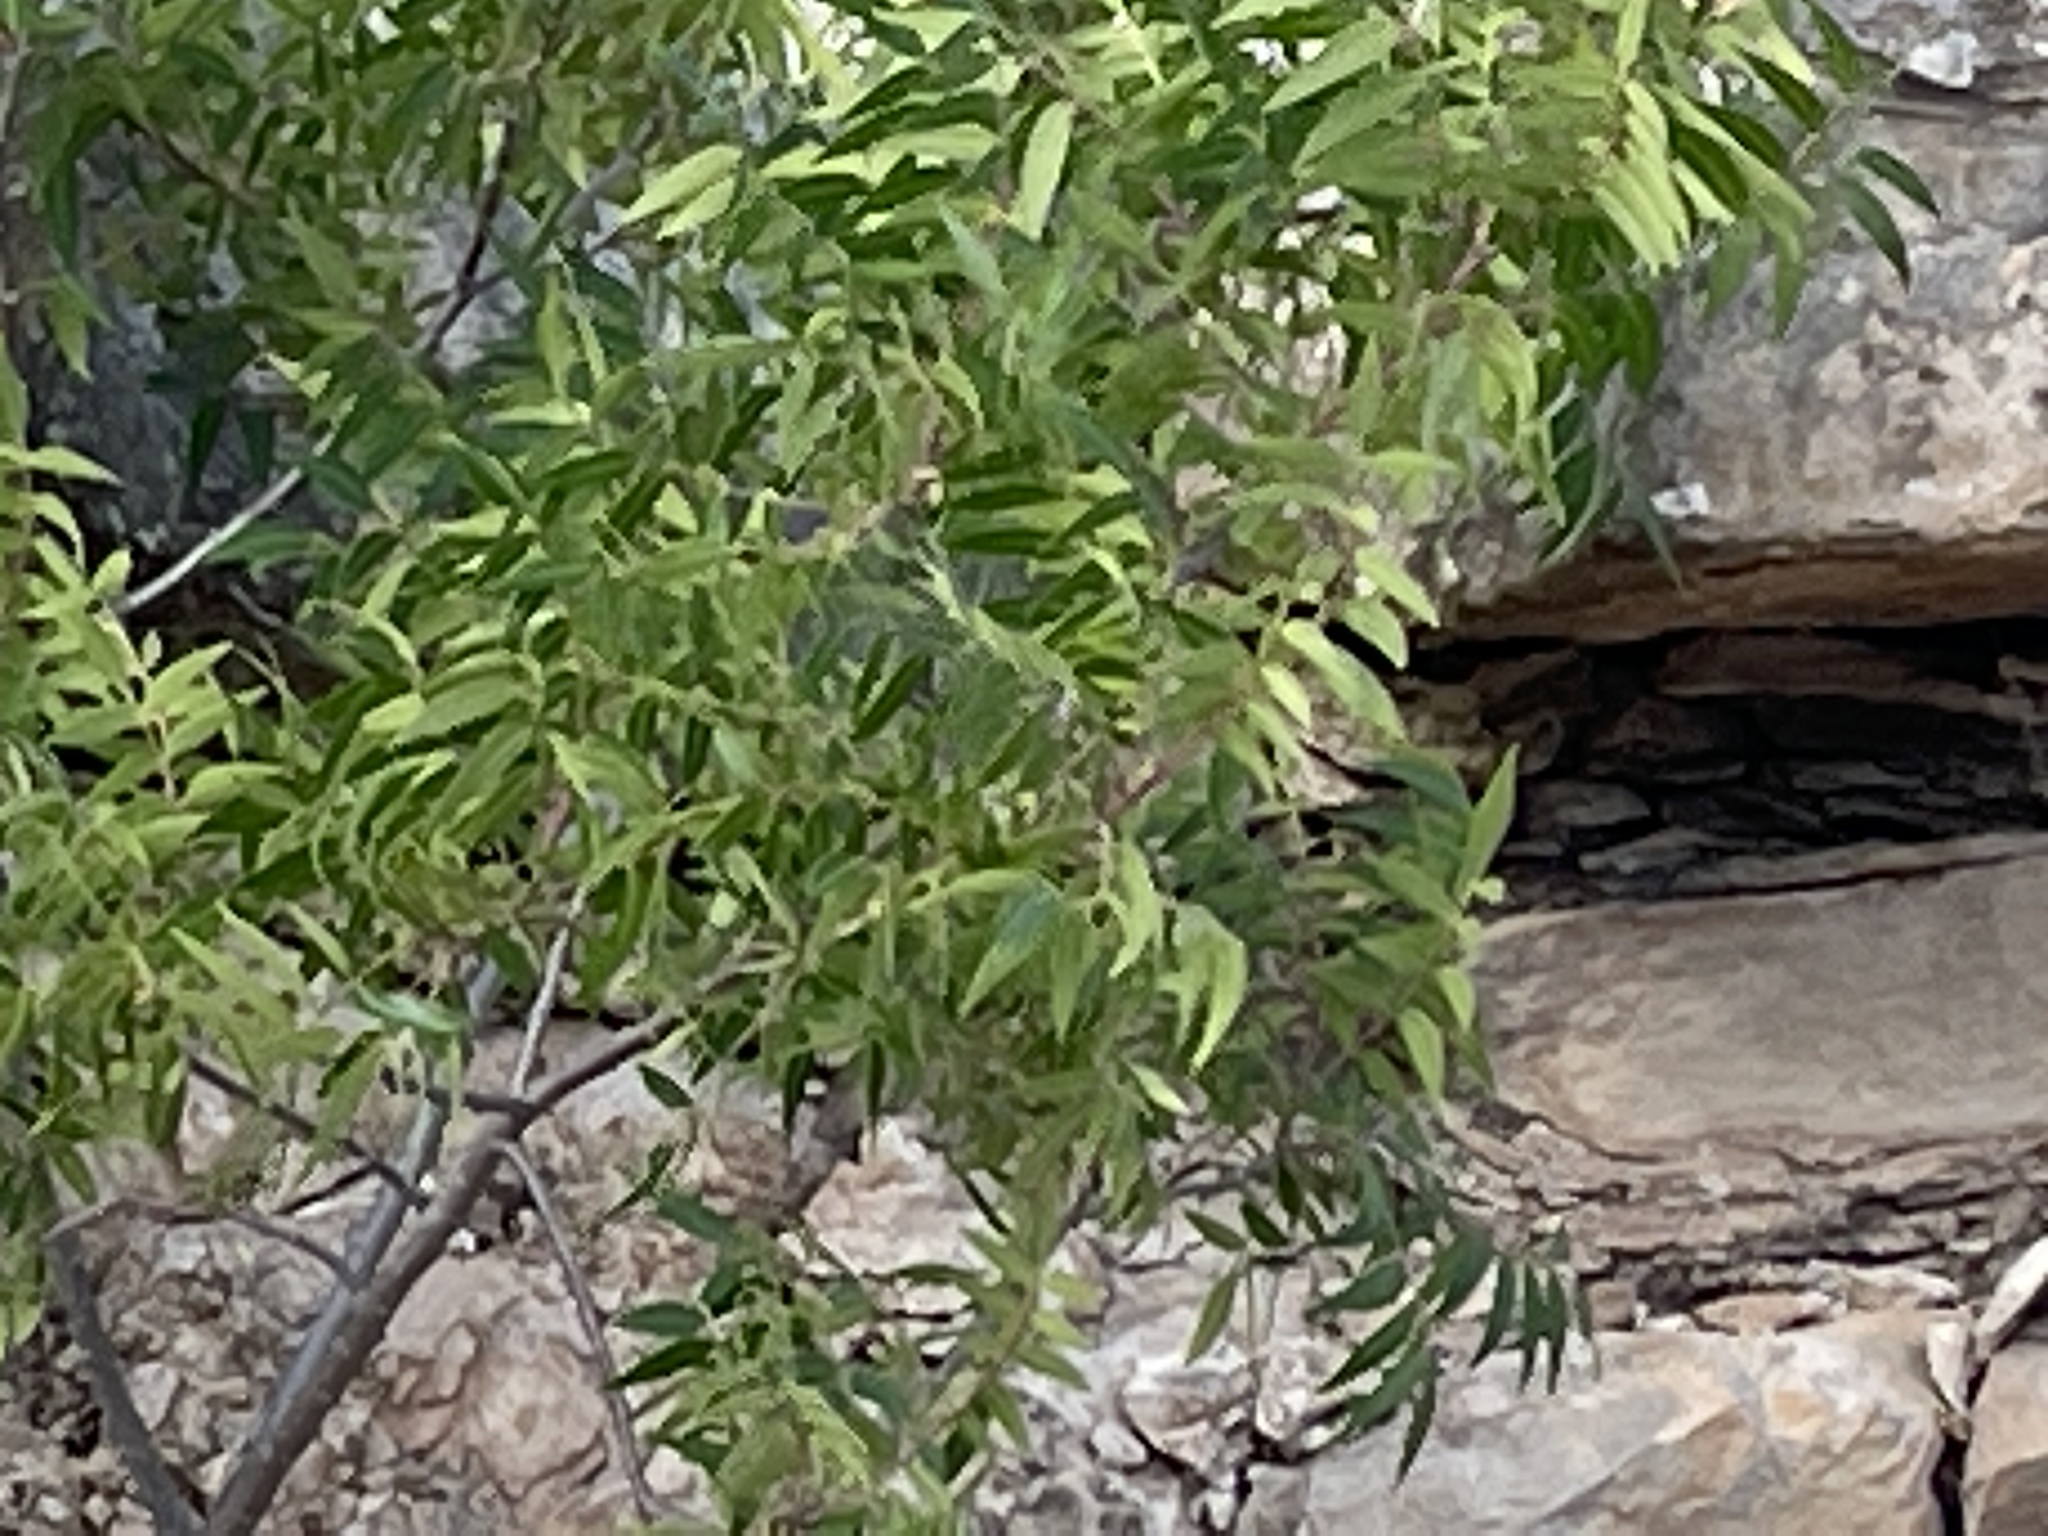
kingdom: Plantae
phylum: Tracheophyta
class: Magnoliopsida
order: Sapindales
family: Anacardiaceae
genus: Rhus
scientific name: Rhus lanceolata
